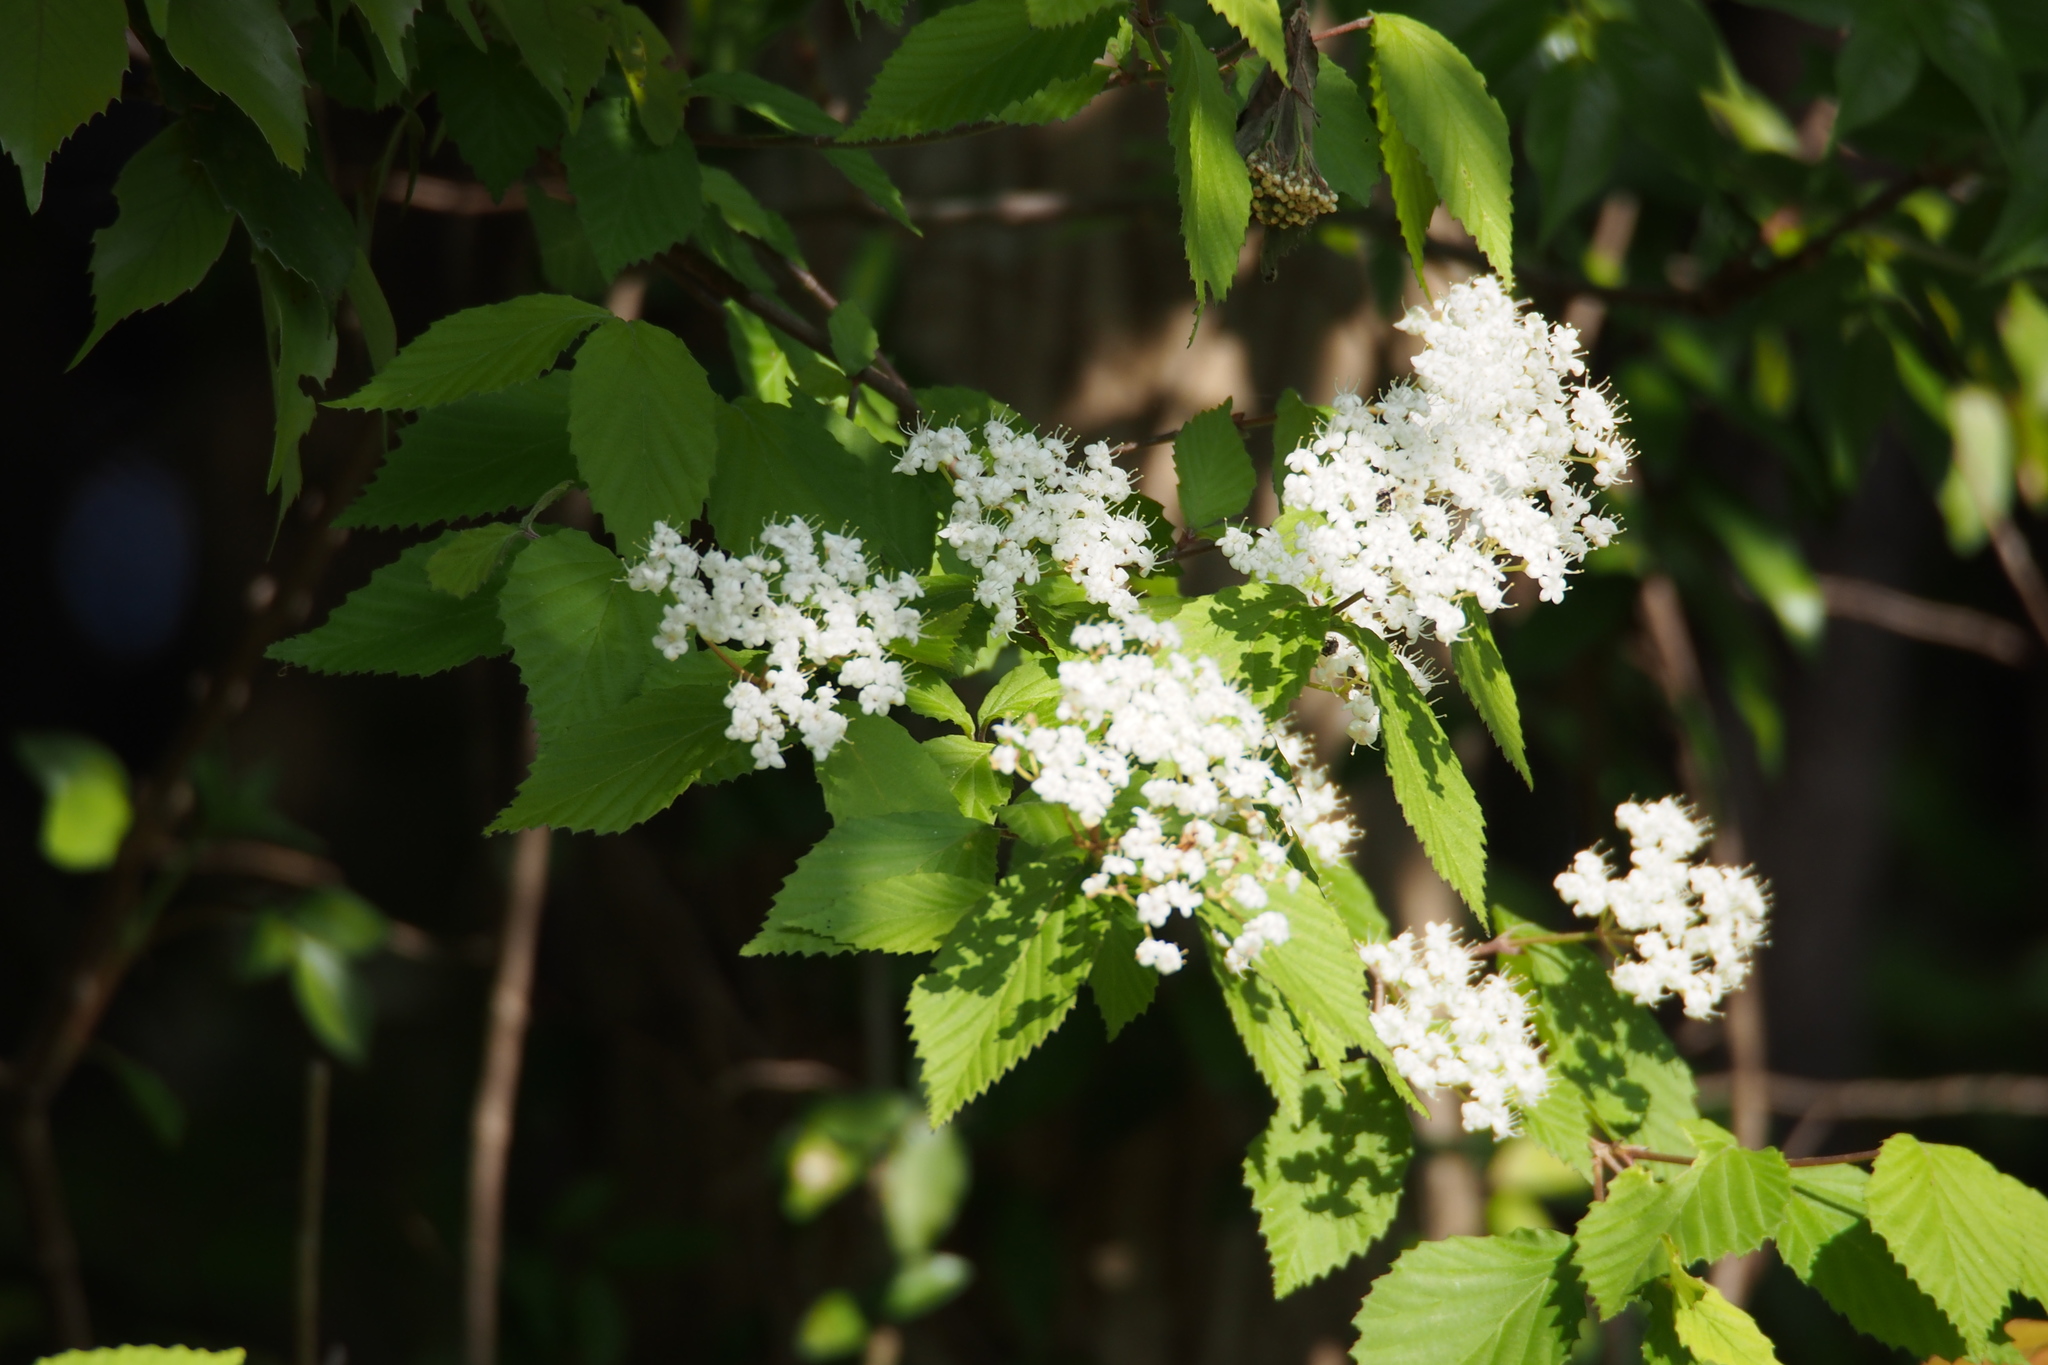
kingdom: Plantae
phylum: Tracheophyta
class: Magnoliopsida
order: Dipsacales
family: Viburnaceae
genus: Viburnum
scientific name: Viburnum erosum
